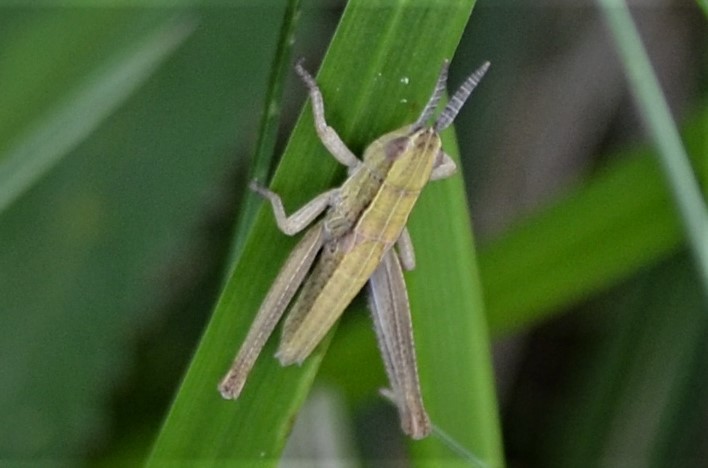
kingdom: Animalia
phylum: Arthropoda
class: Insecta
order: Orthoptera
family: Acrididae
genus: Euthystira
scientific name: Euthystira brachyptera
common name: Small gold grasshopper
